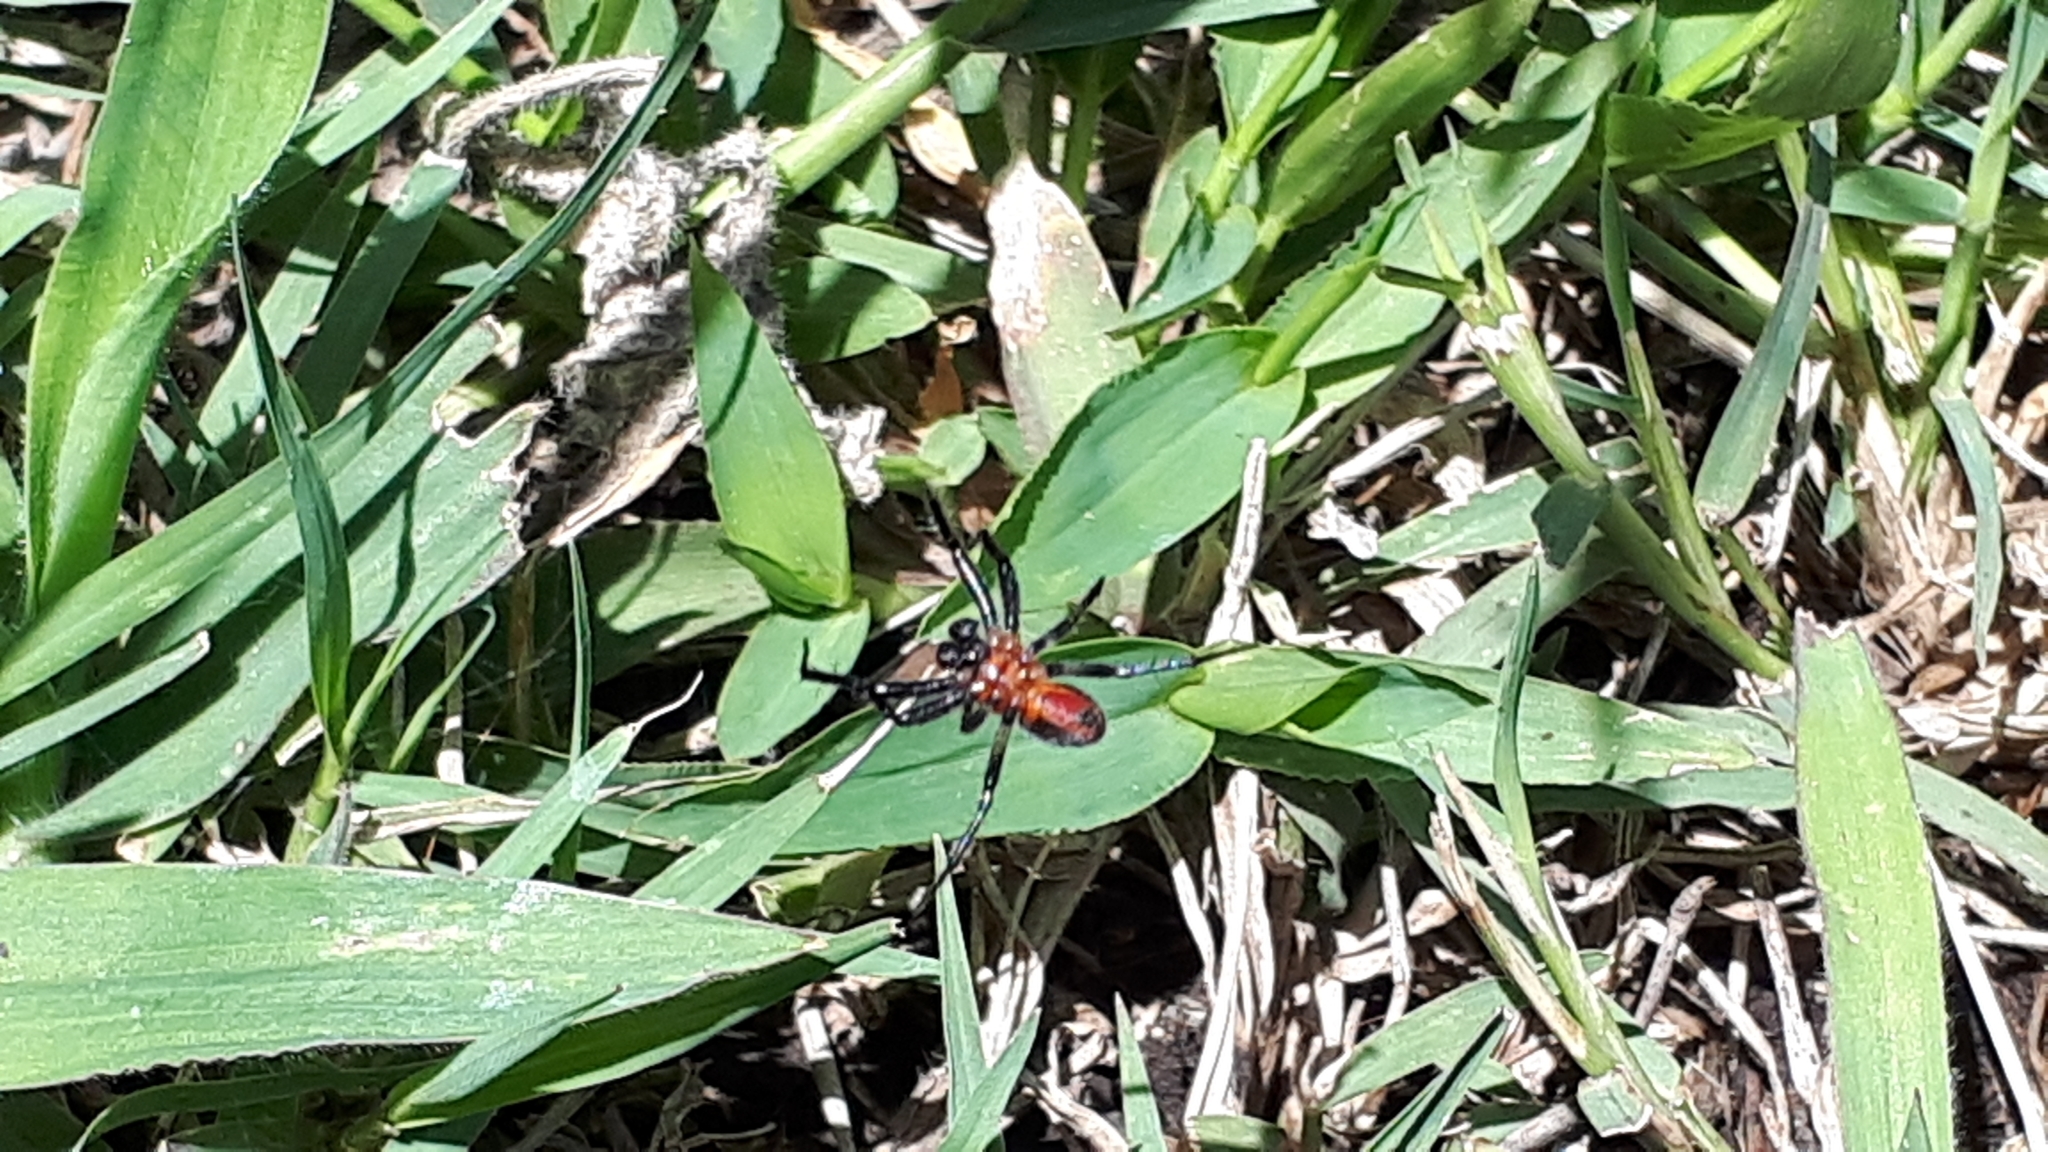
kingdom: Animalia
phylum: Arthropoda
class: Arachnida
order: Araneae
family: Araneidae
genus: Alpaida
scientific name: Alpaida gallardoi
